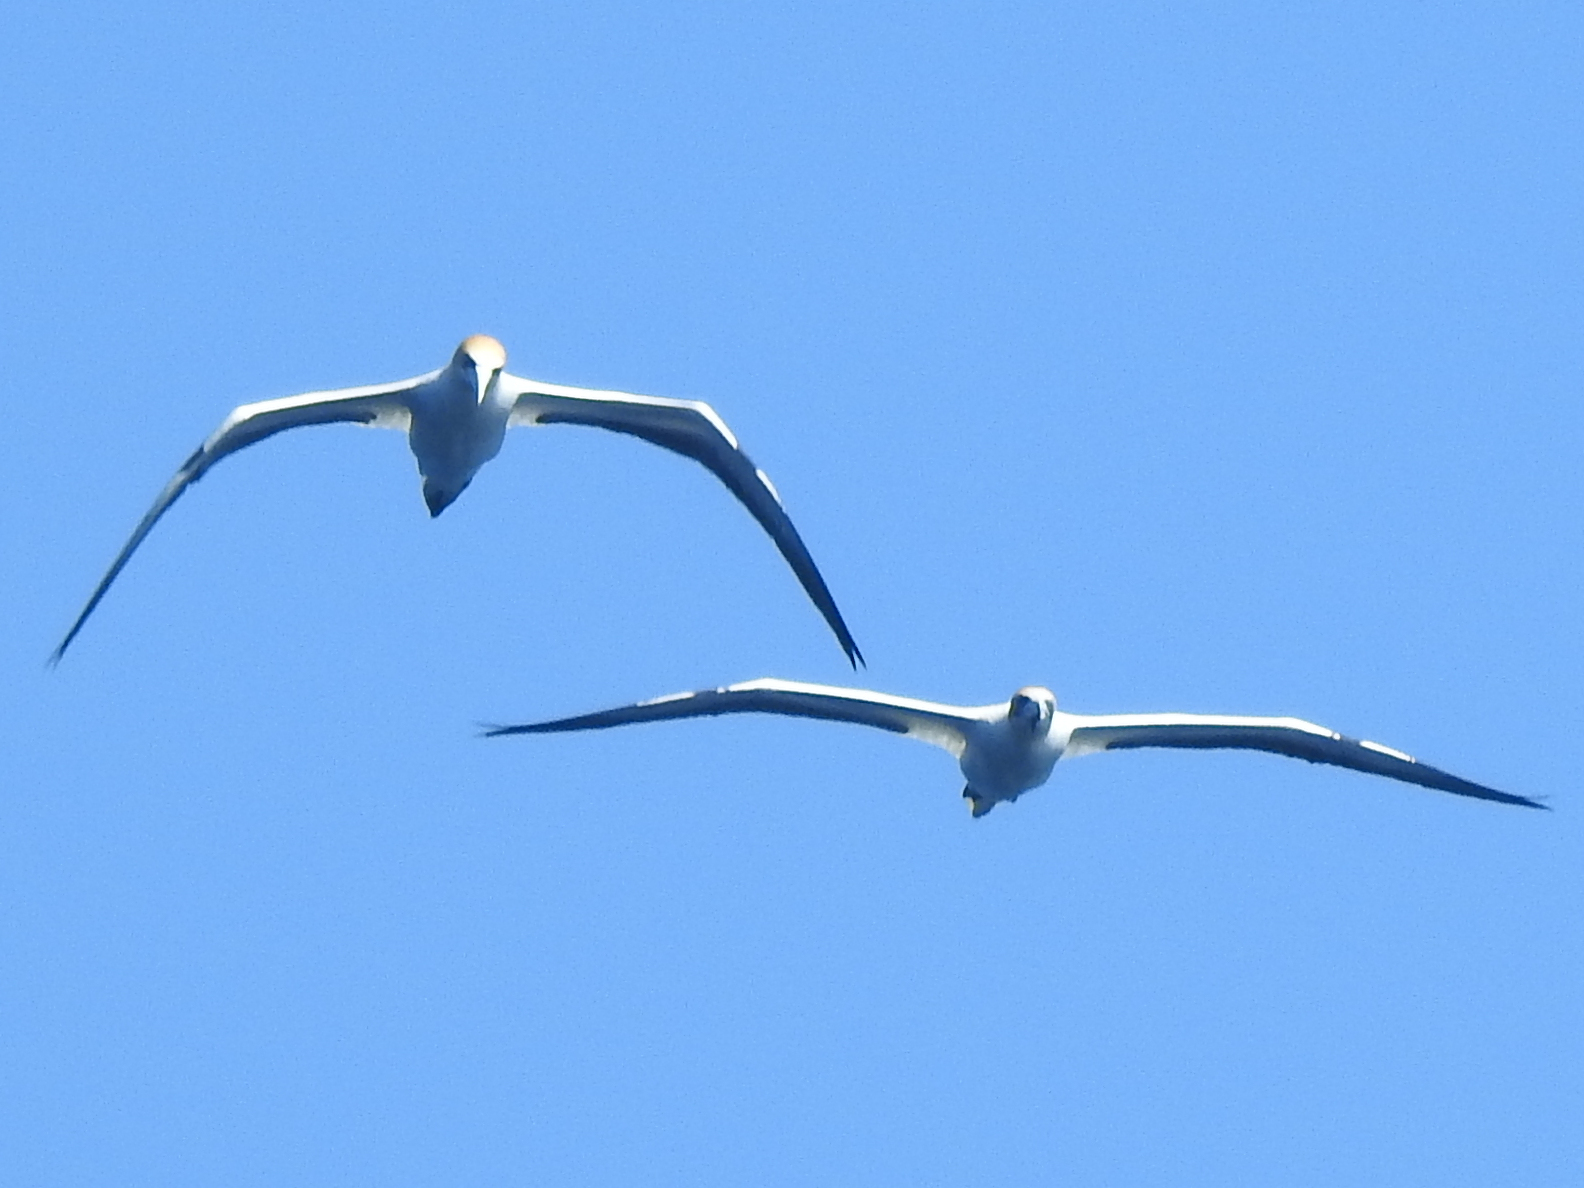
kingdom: Animalia
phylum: Chordata
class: Aves
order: Suliformes
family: Sulidae
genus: Morus
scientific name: Morus serrator
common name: Australasian gannet
